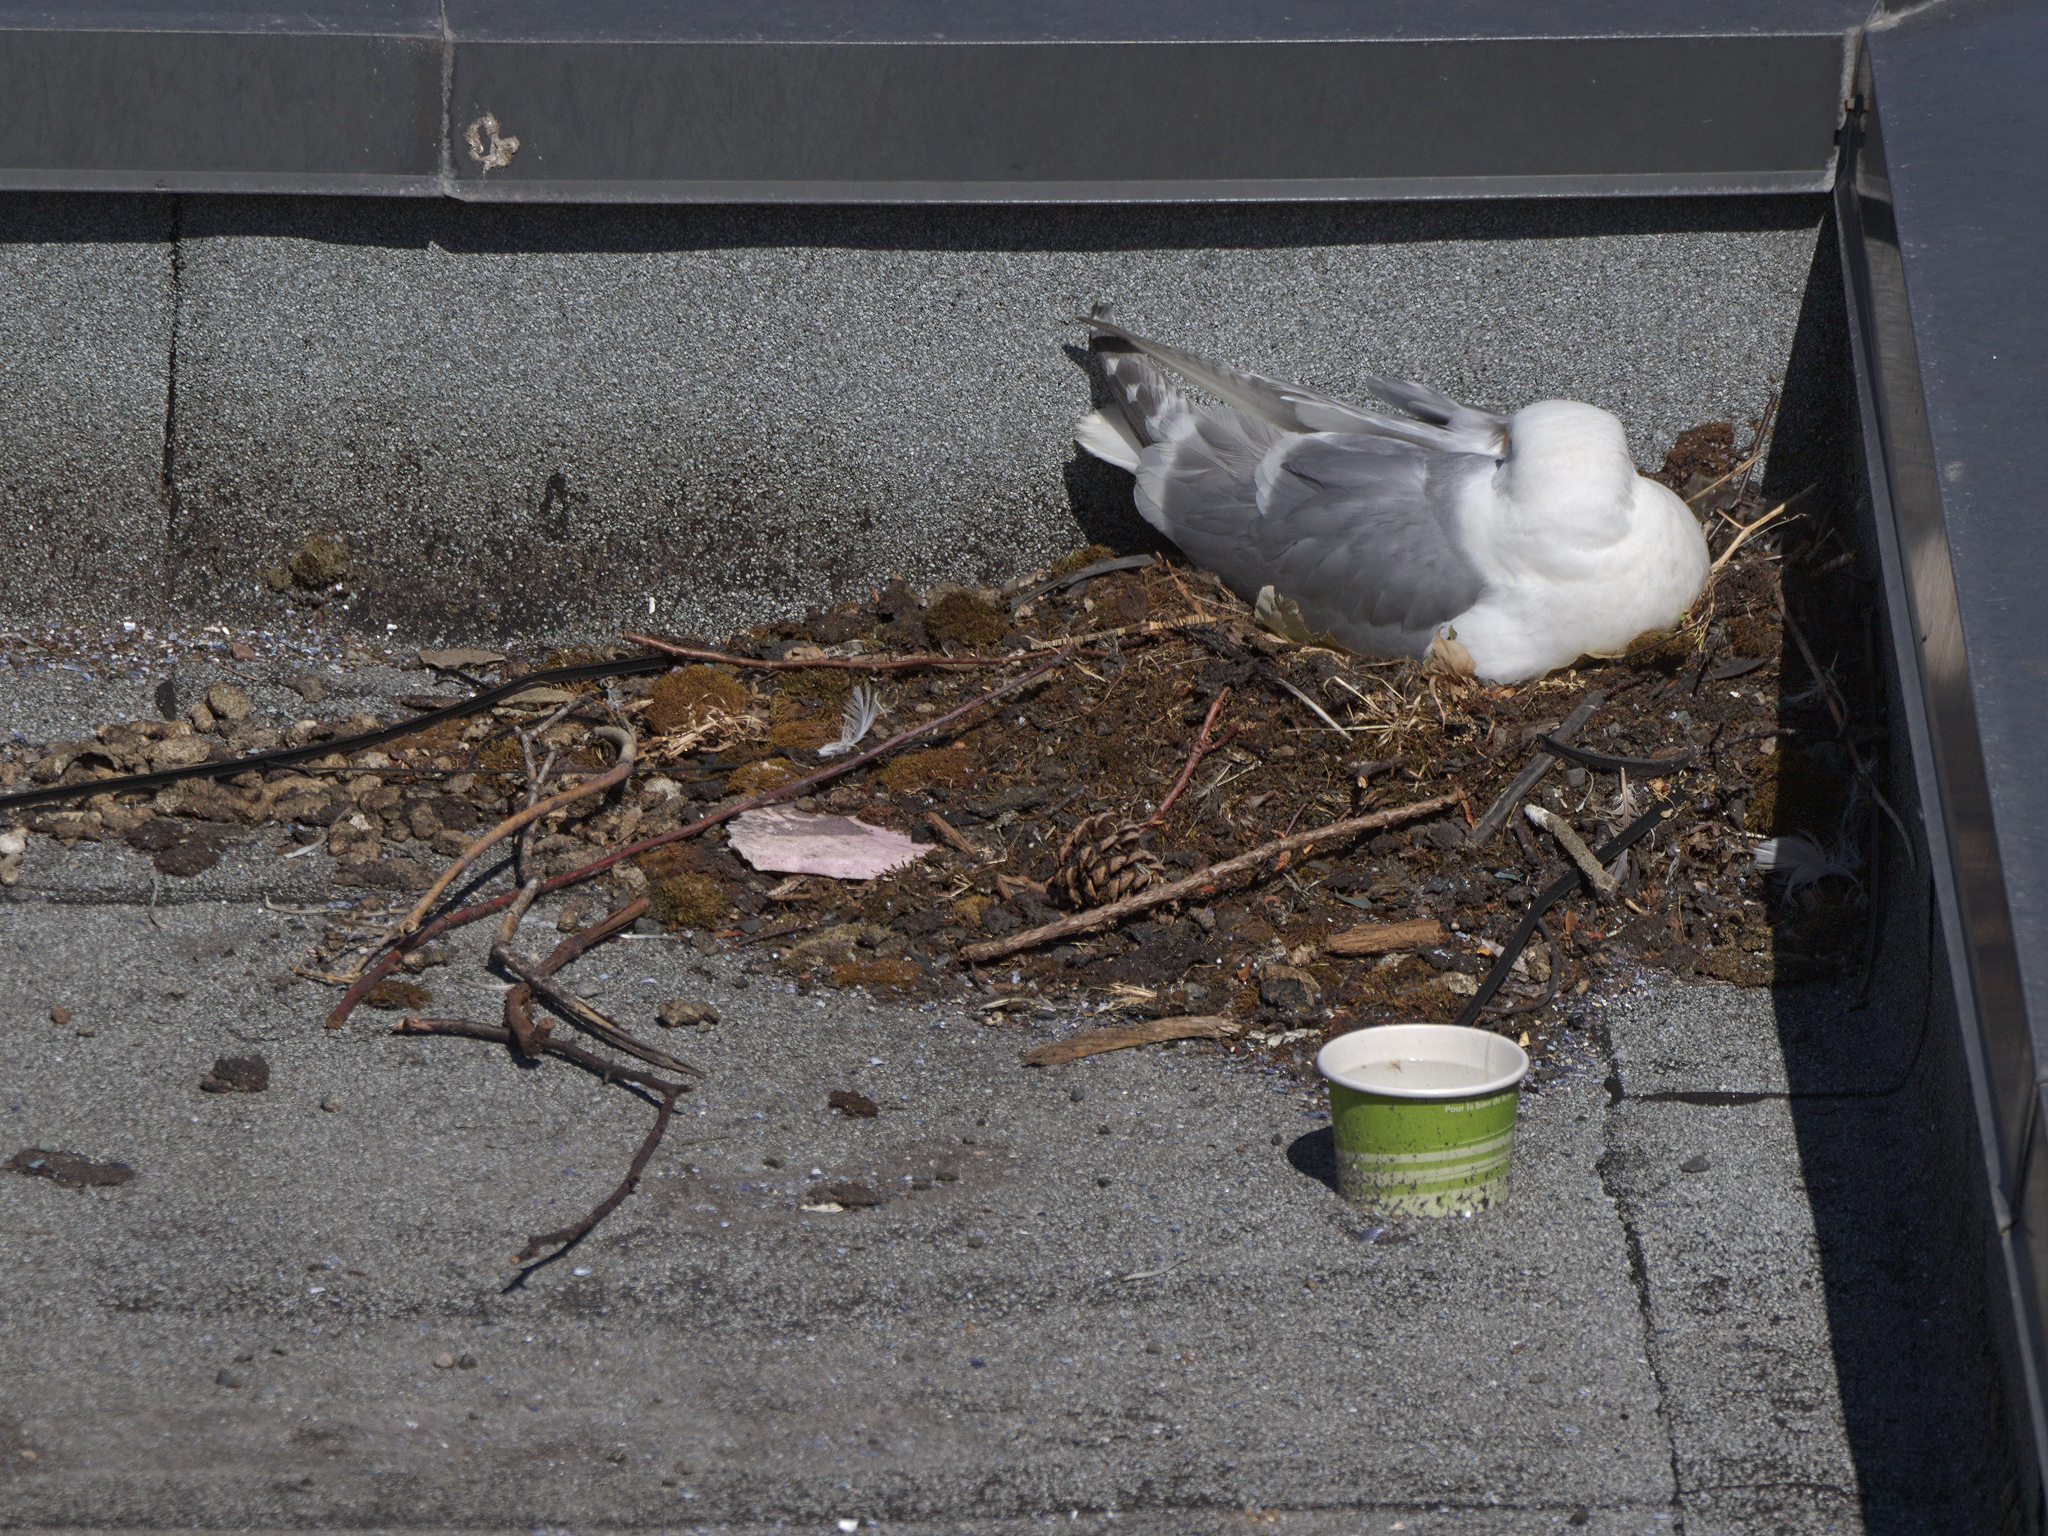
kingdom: Animalia
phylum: Chordata
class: Aves
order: Charadriiformes
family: Laridae
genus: Larus
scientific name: Larus
